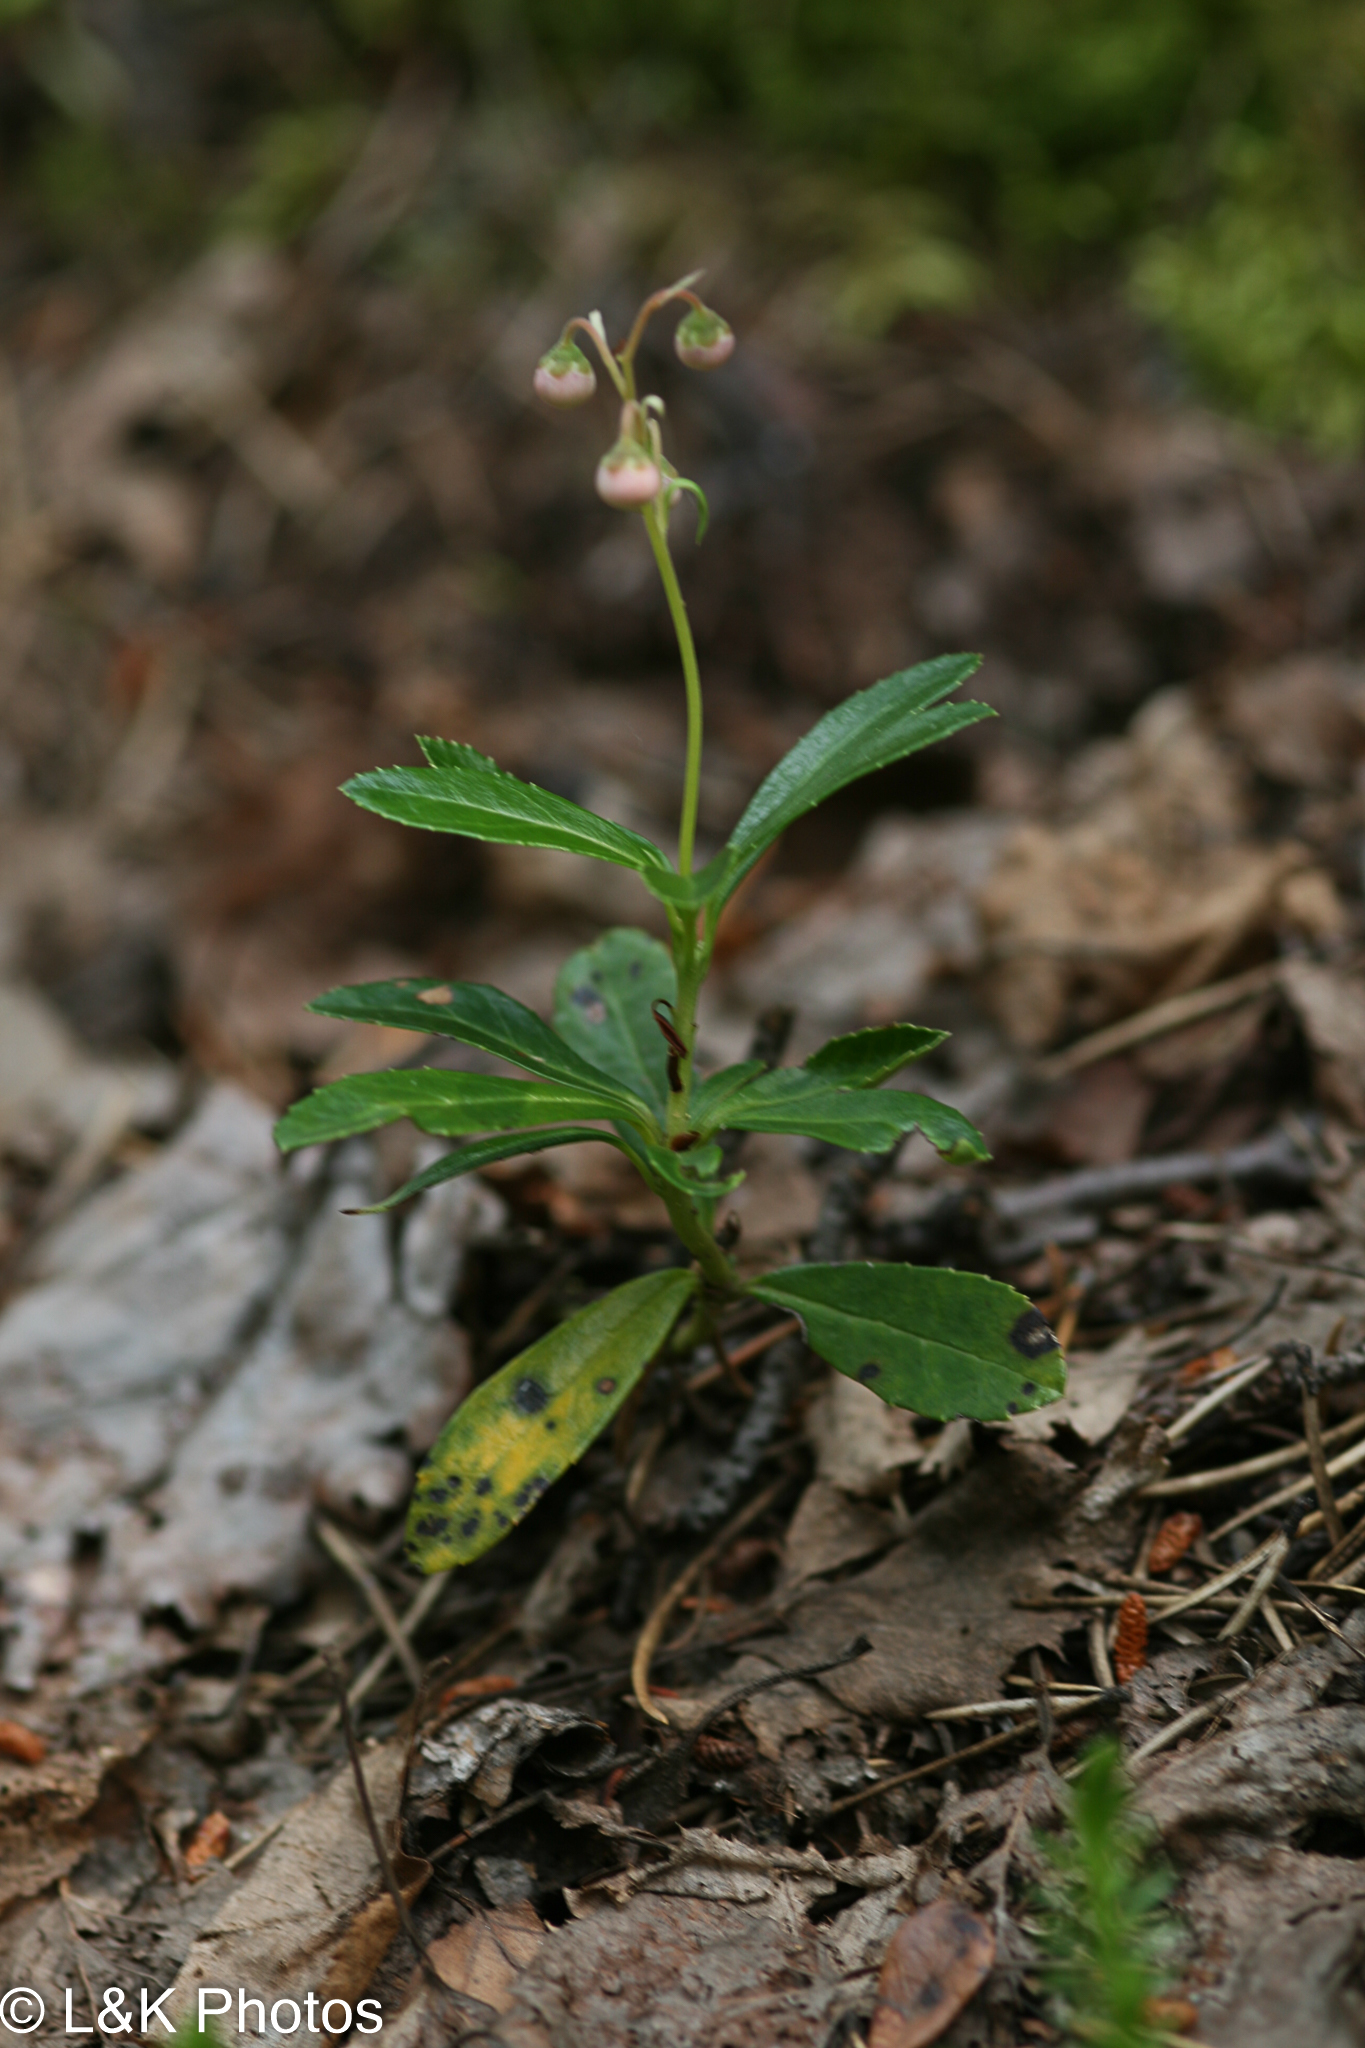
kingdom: Plantae
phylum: Tracheophyta
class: Magnoliopsida
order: Ericales
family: Ericaceae
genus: Chimaphila
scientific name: Chimaphila umbellata
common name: Pipsissewa
